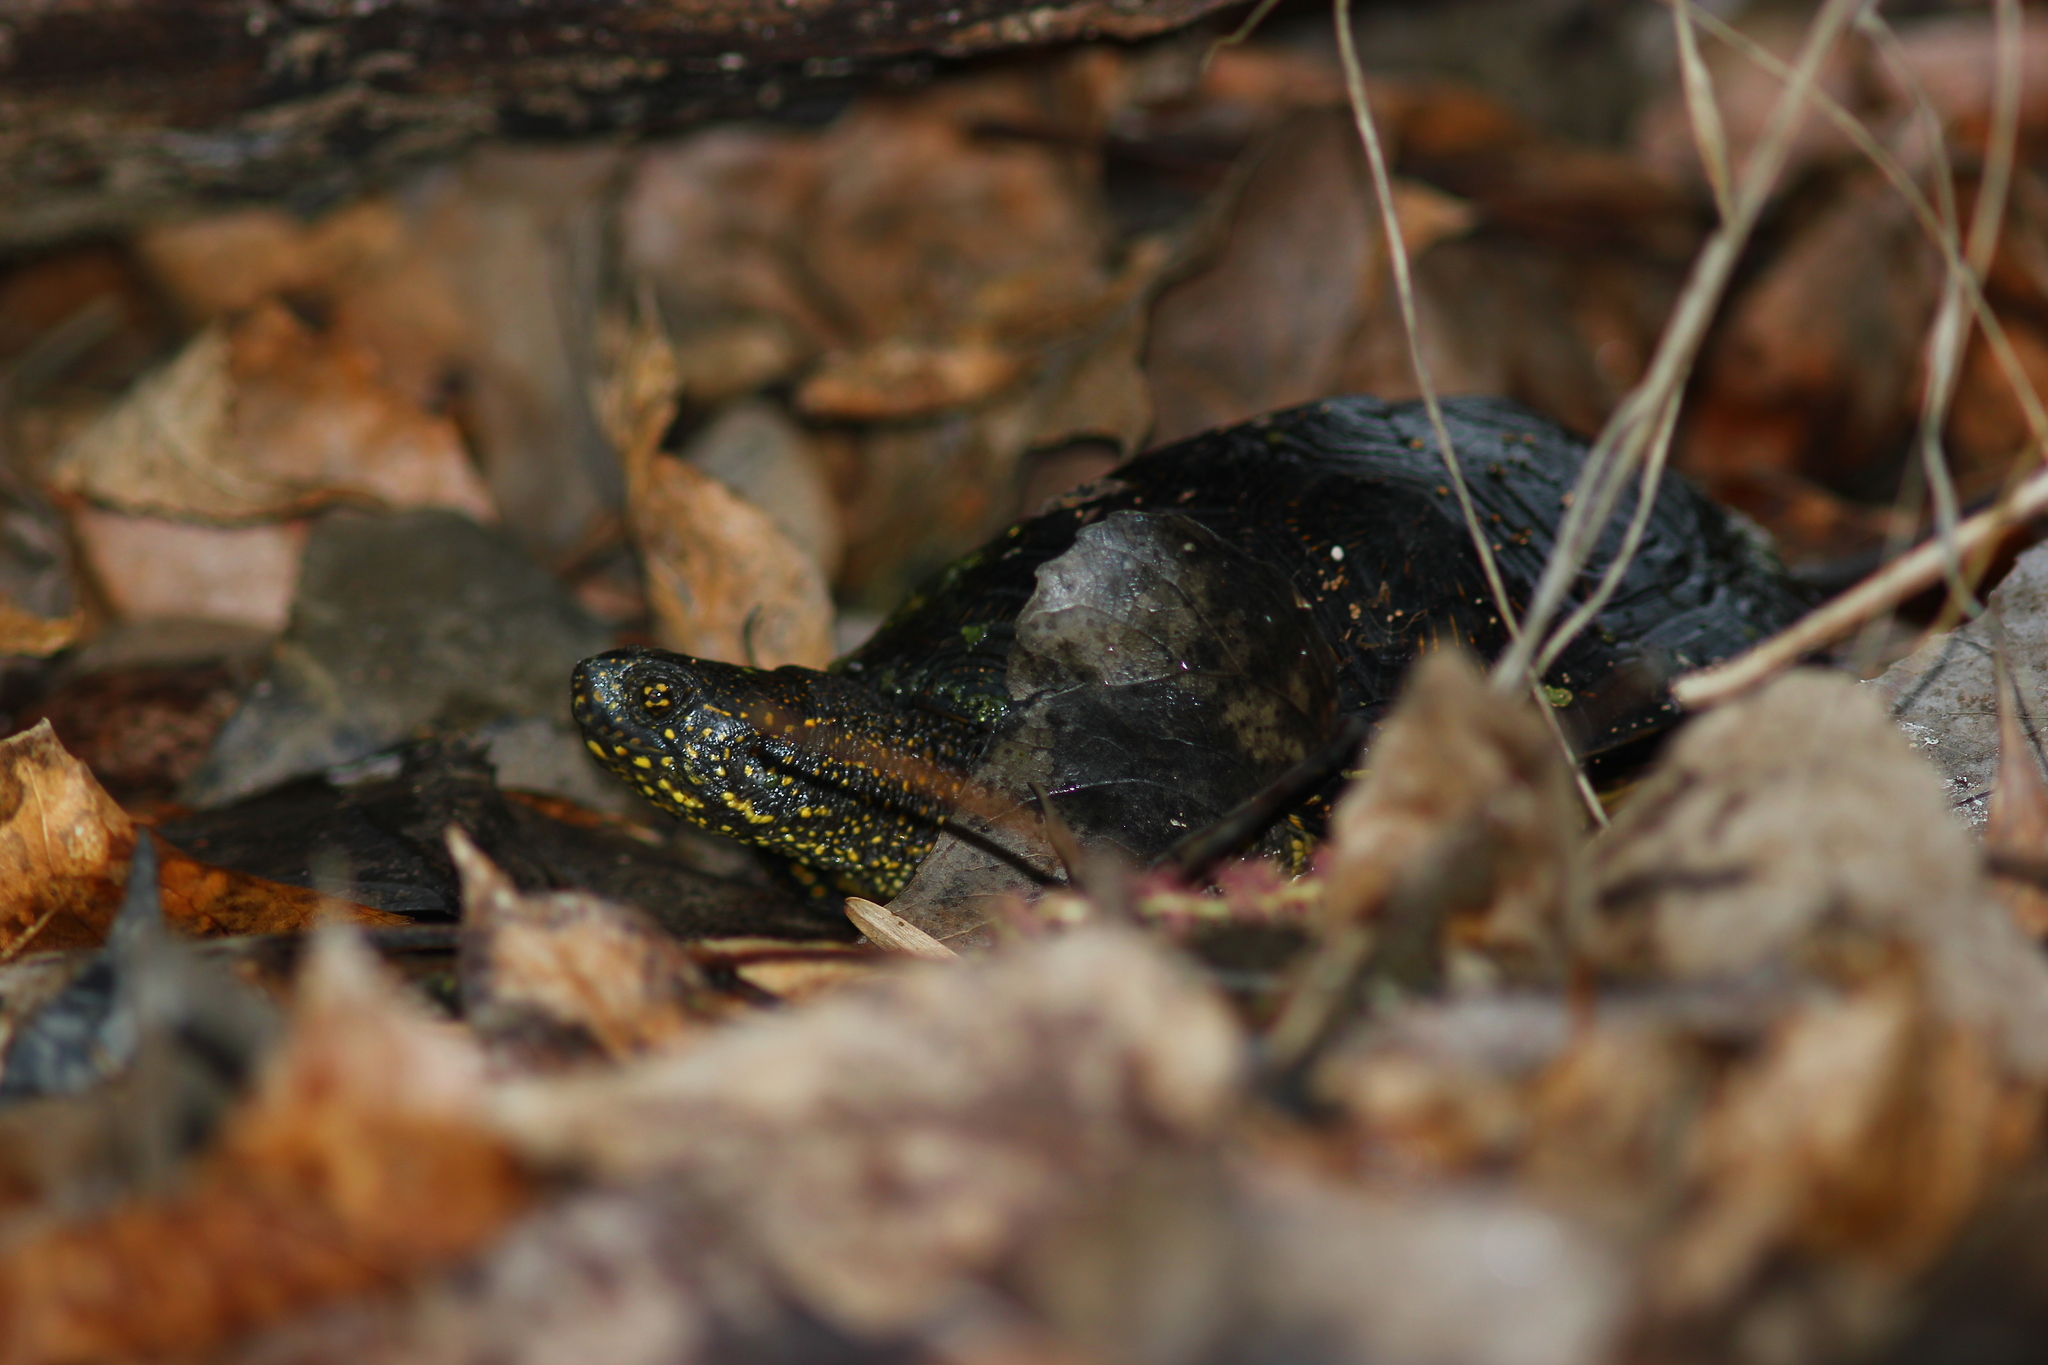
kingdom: Animalia
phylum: Chordata
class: Testudines
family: Emydidae
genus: Emys
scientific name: Emys orbicularis
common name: European pond turtle
